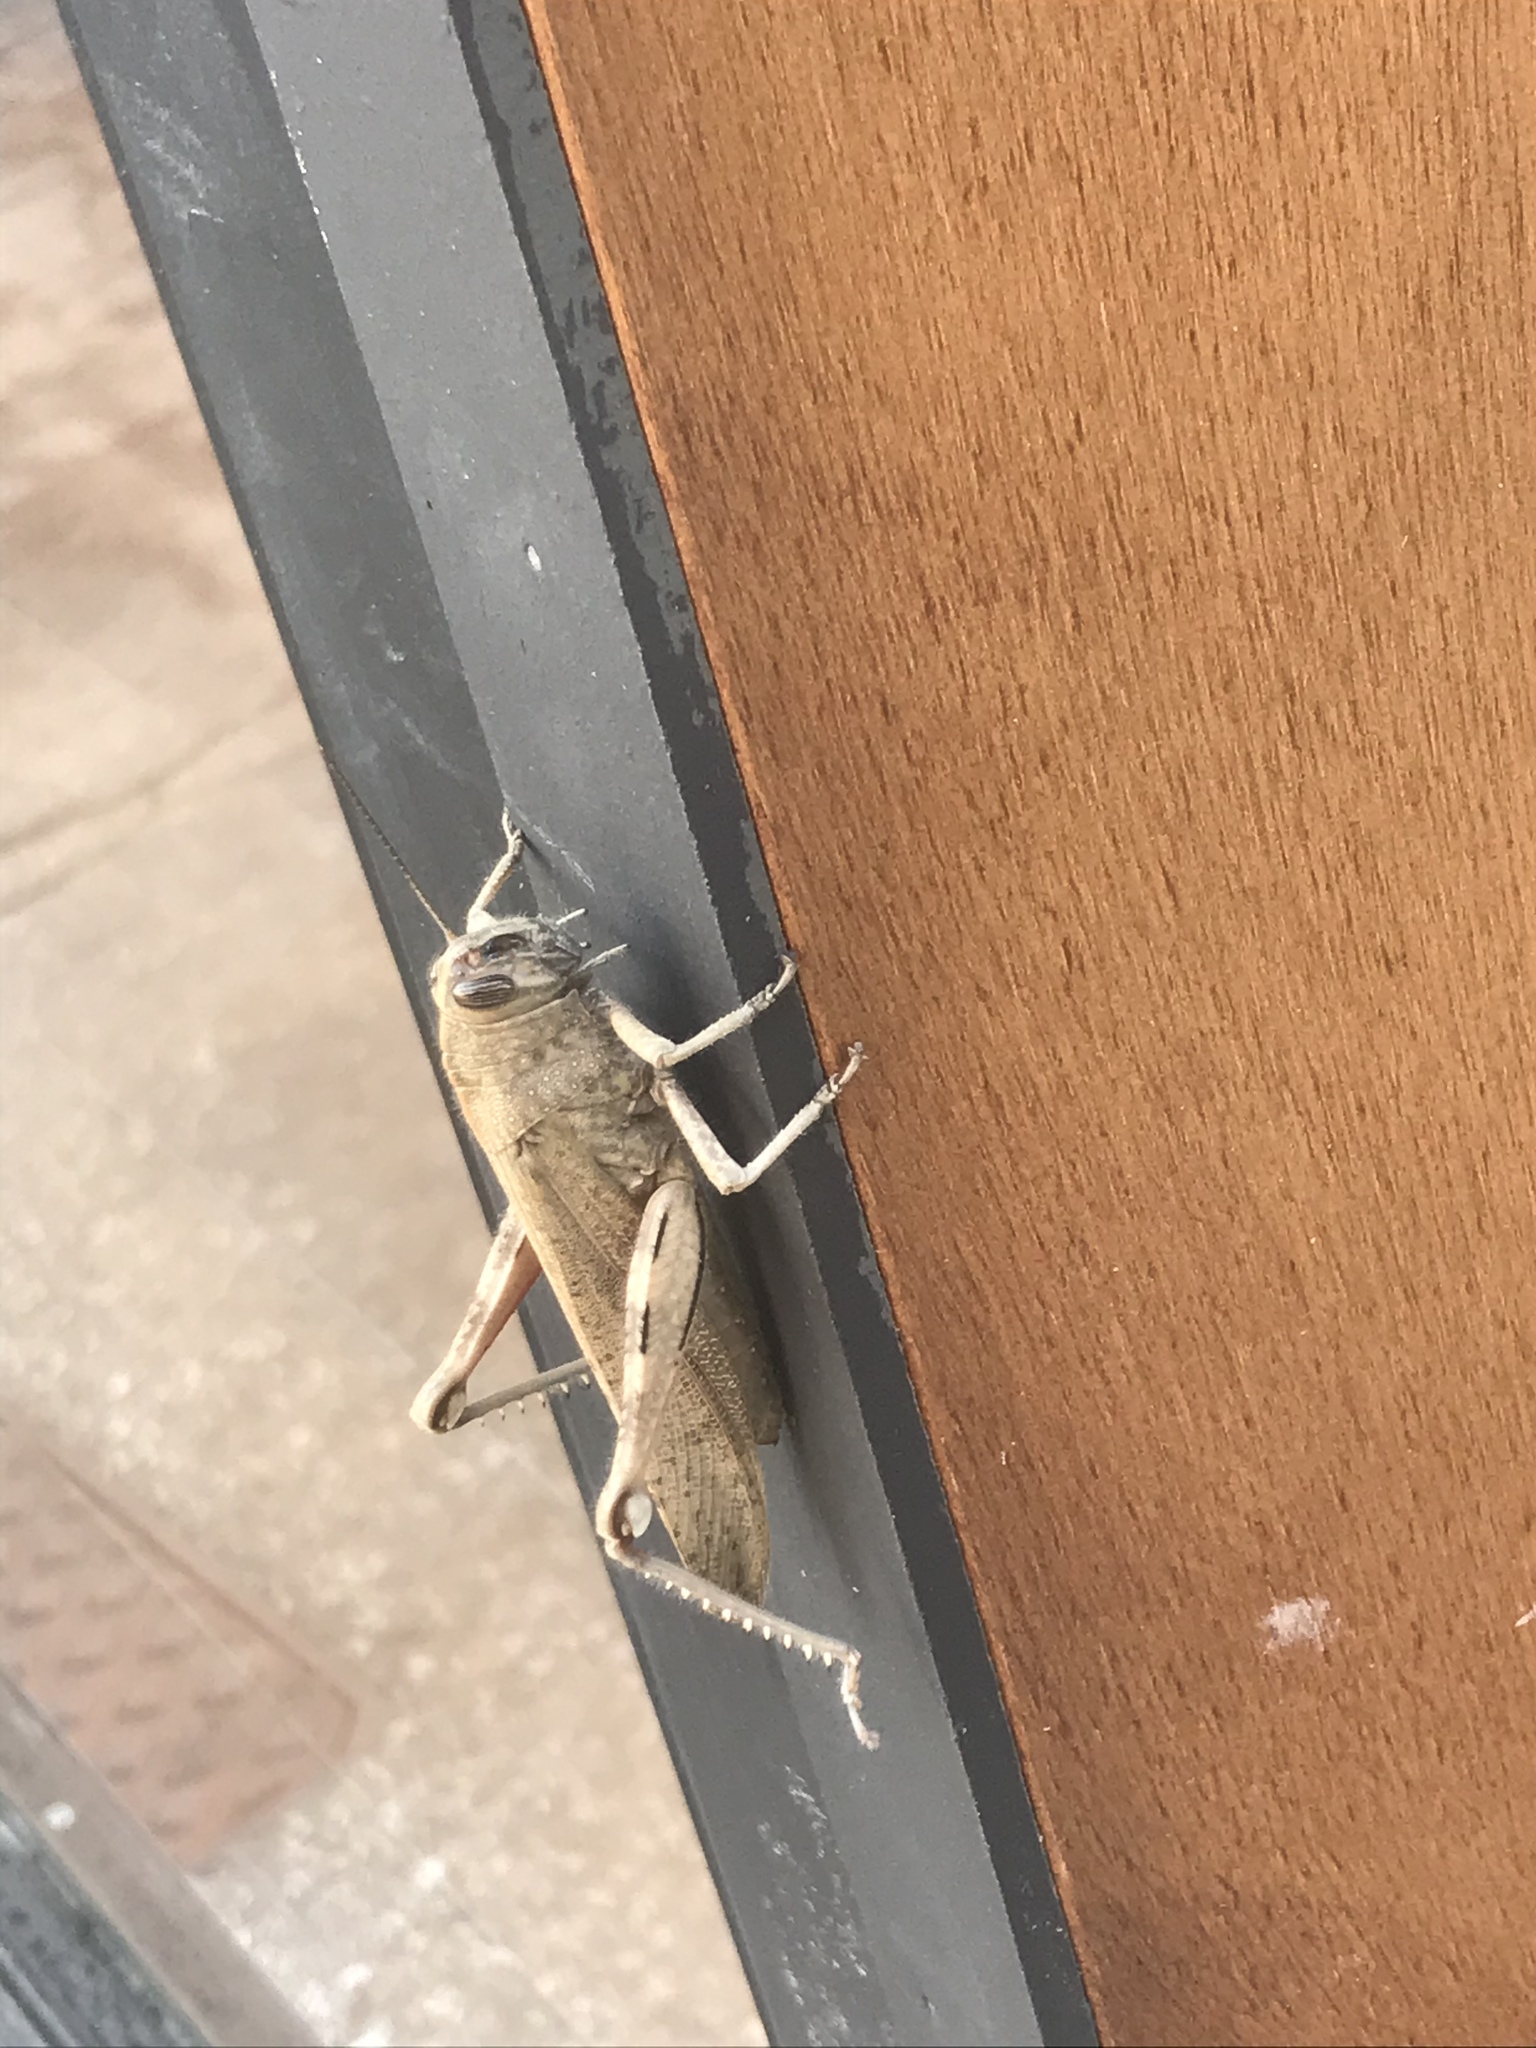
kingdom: Animalia
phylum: Arthropoda
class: Insecta
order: Orthoptera
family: Acrididae
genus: Anacridium
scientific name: Anacridium aegyptium
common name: Egyptian grasshopper
